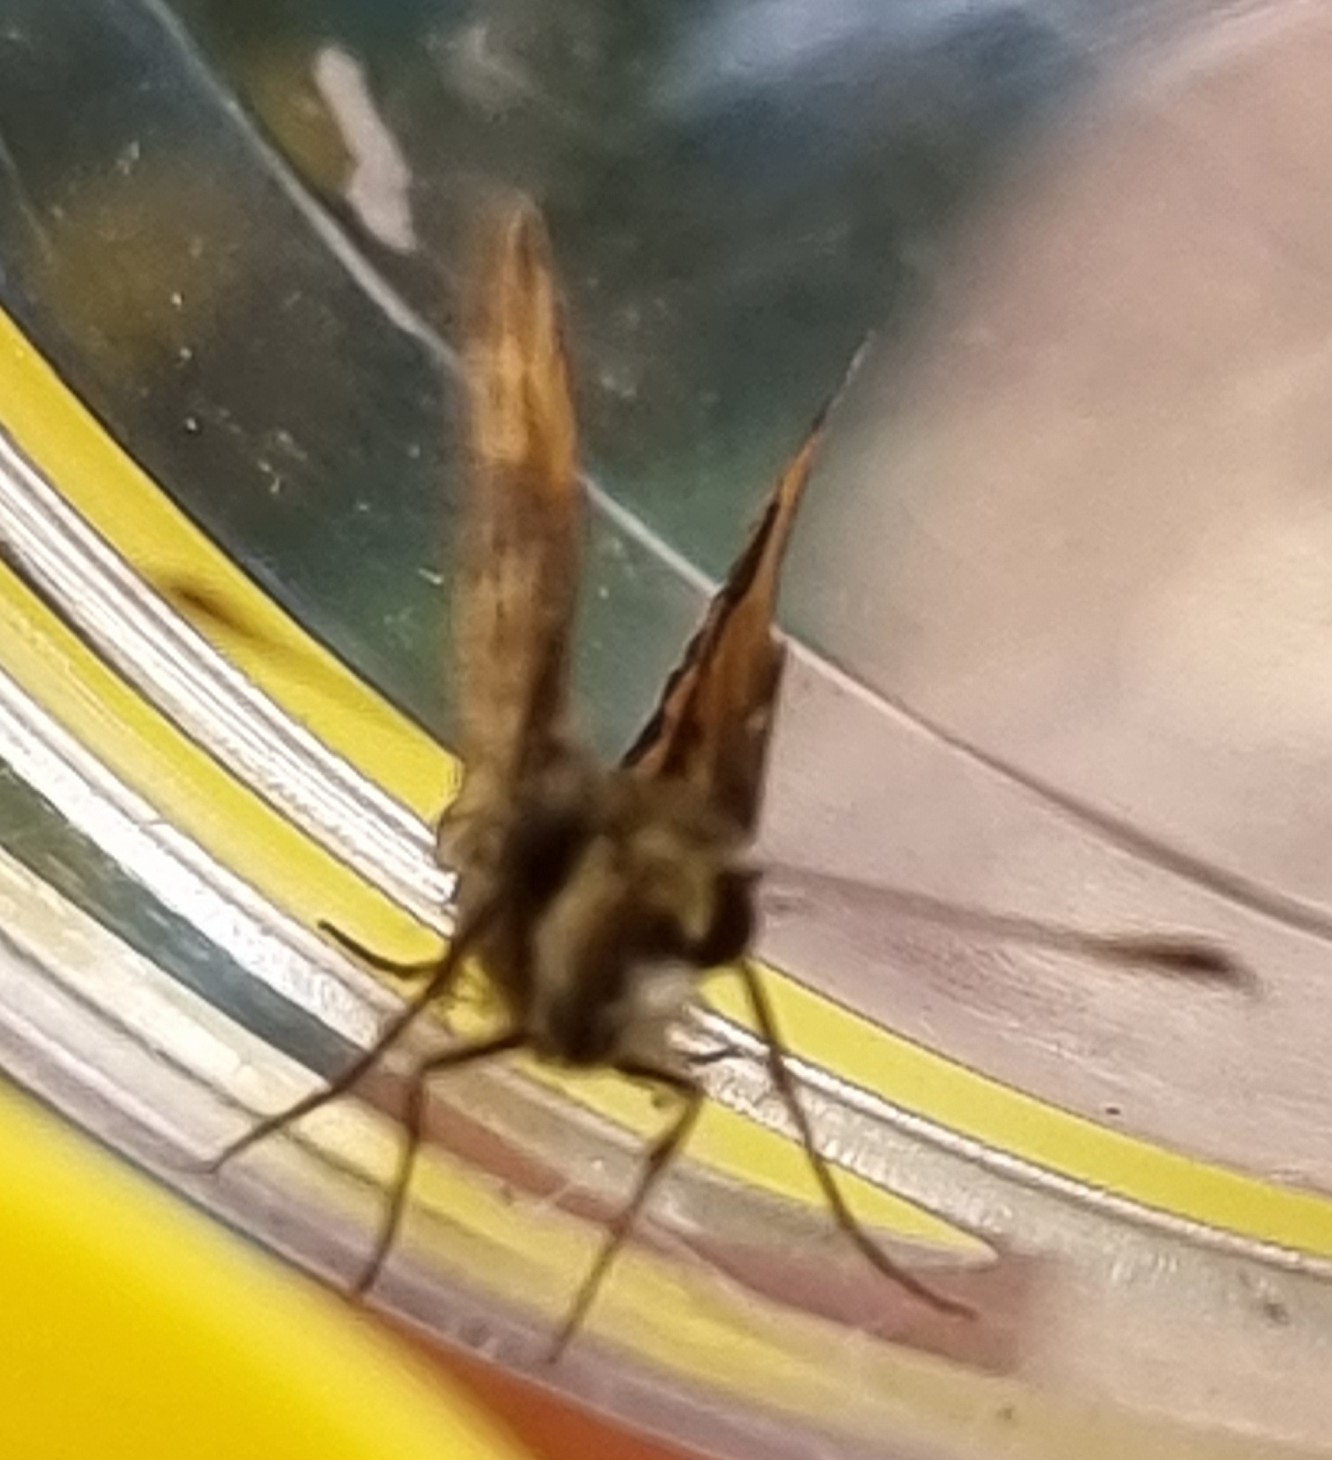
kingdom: Animalia
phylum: Arthropoda
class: Insecta
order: Lepidoptera
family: Hesperiidae
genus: Suniana
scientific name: Suniana sunias
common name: Wide-brand grass-dart
